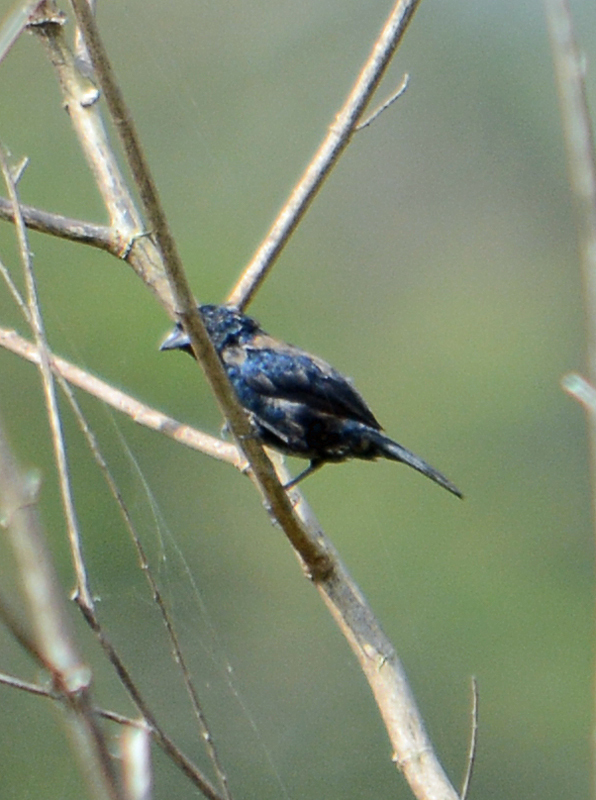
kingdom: Animalia
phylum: Chordata
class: Aves
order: Passeriformes
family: Thraupidae
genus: Volatinia
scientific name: Volatinia jacarina
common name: Blue-black grassquit
